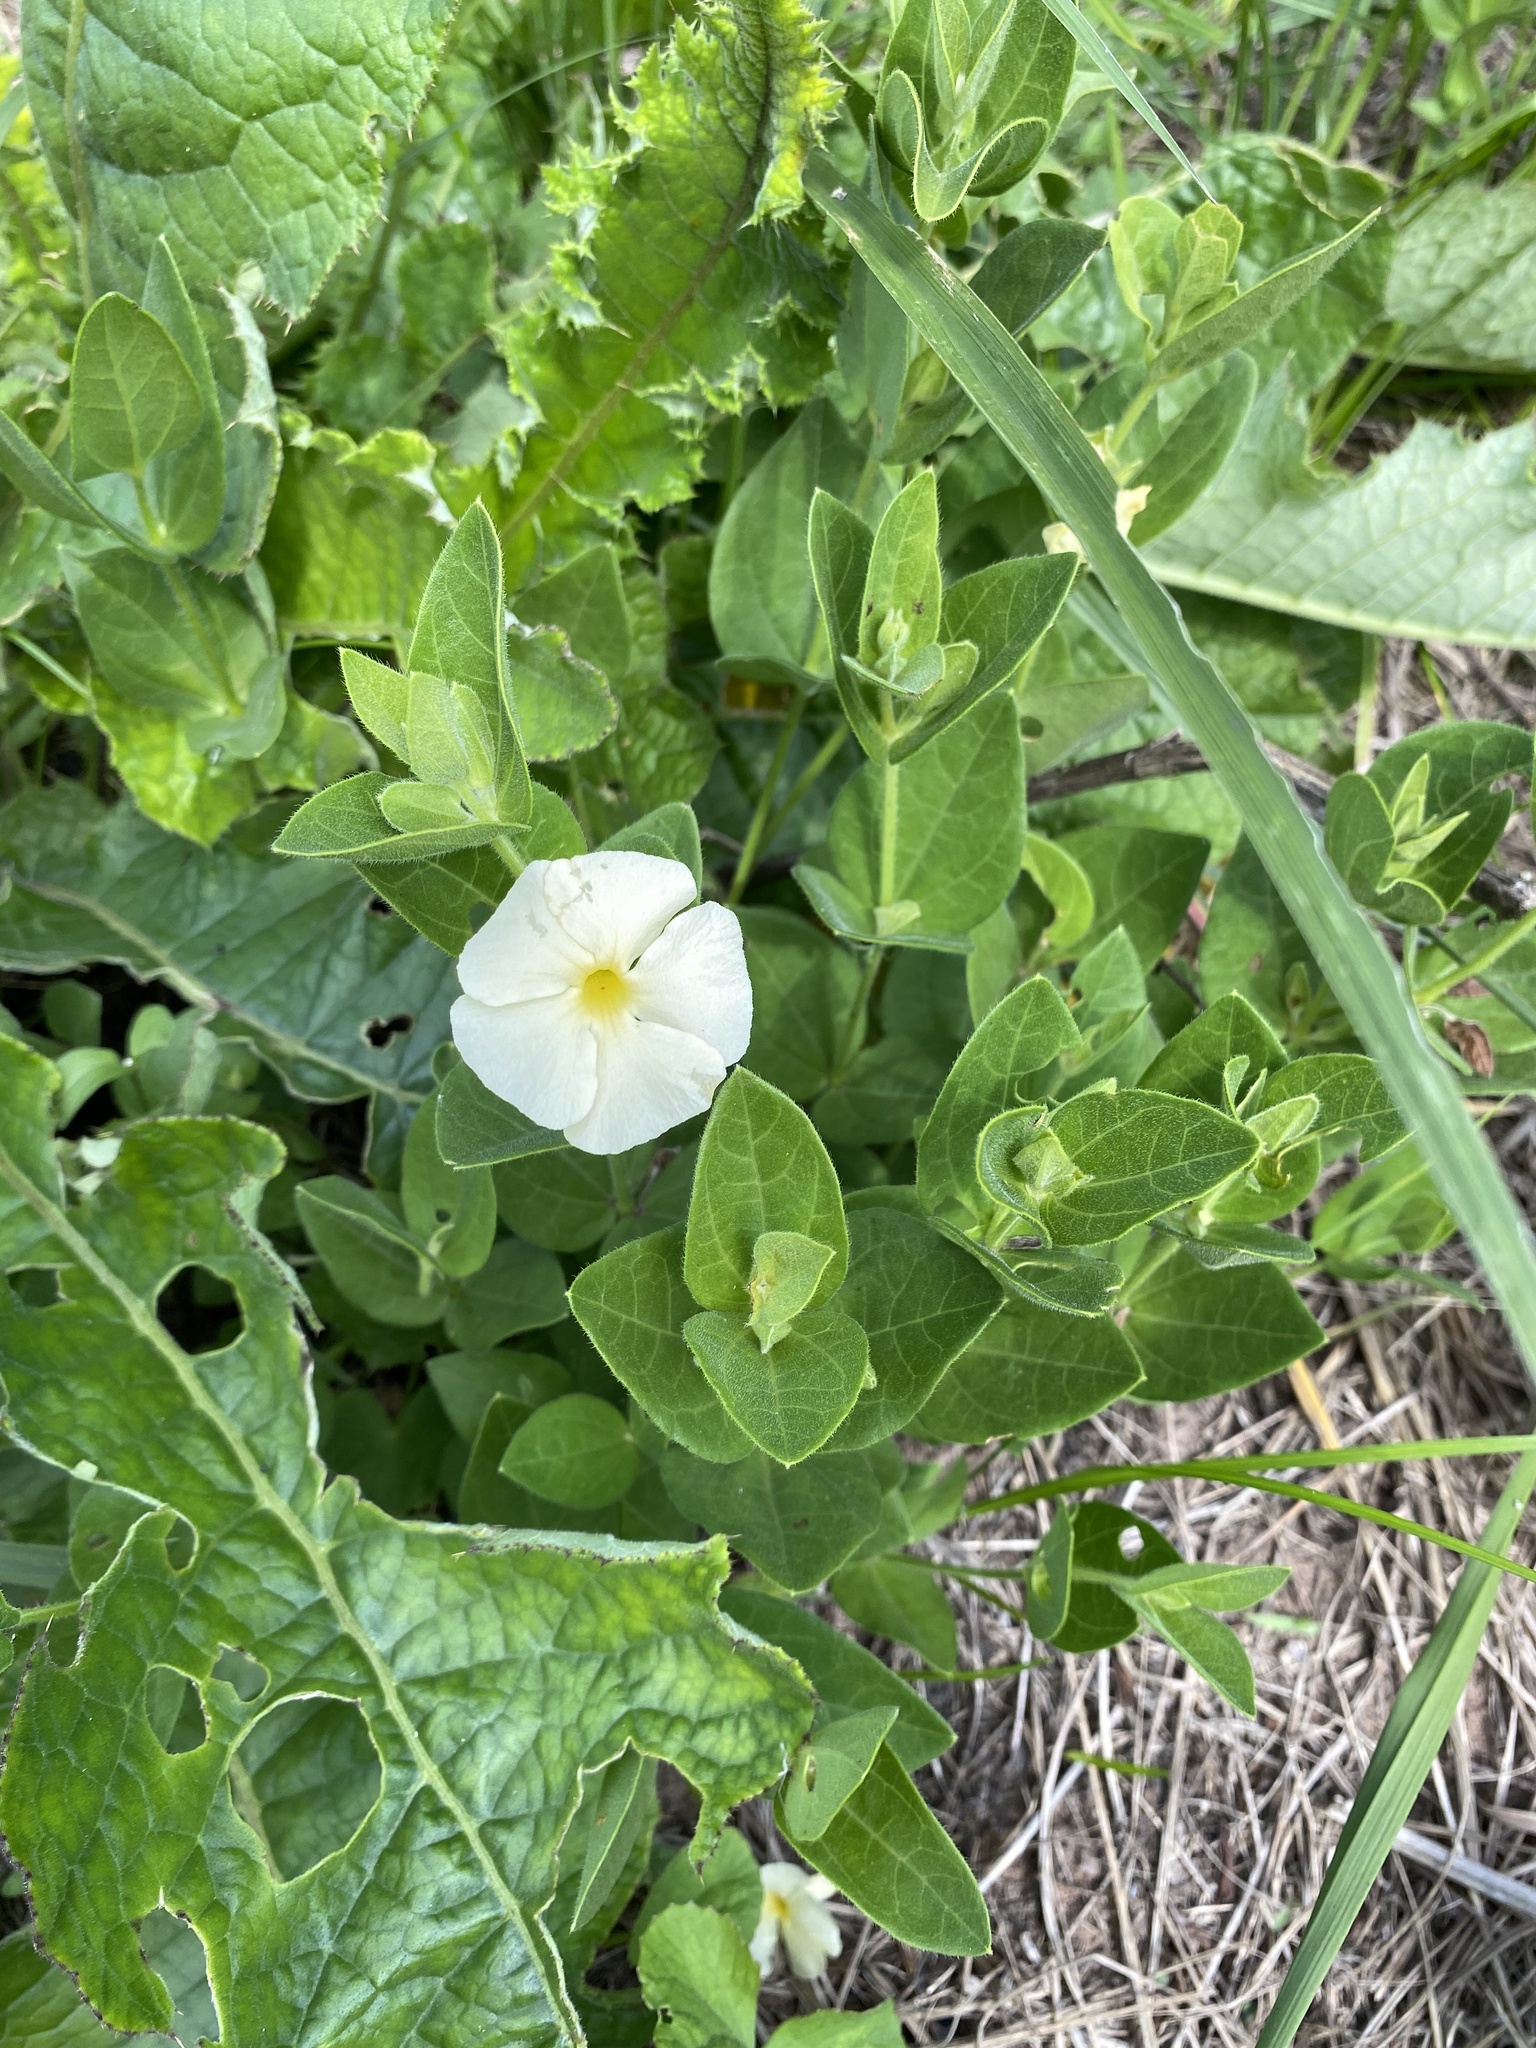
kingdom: Plantae
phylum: Tracheophyta
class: Magnoliopsida
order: Lamiales
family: Acanthaceae
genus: Thunbergia
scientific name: Thunbergia atriplicifolia
